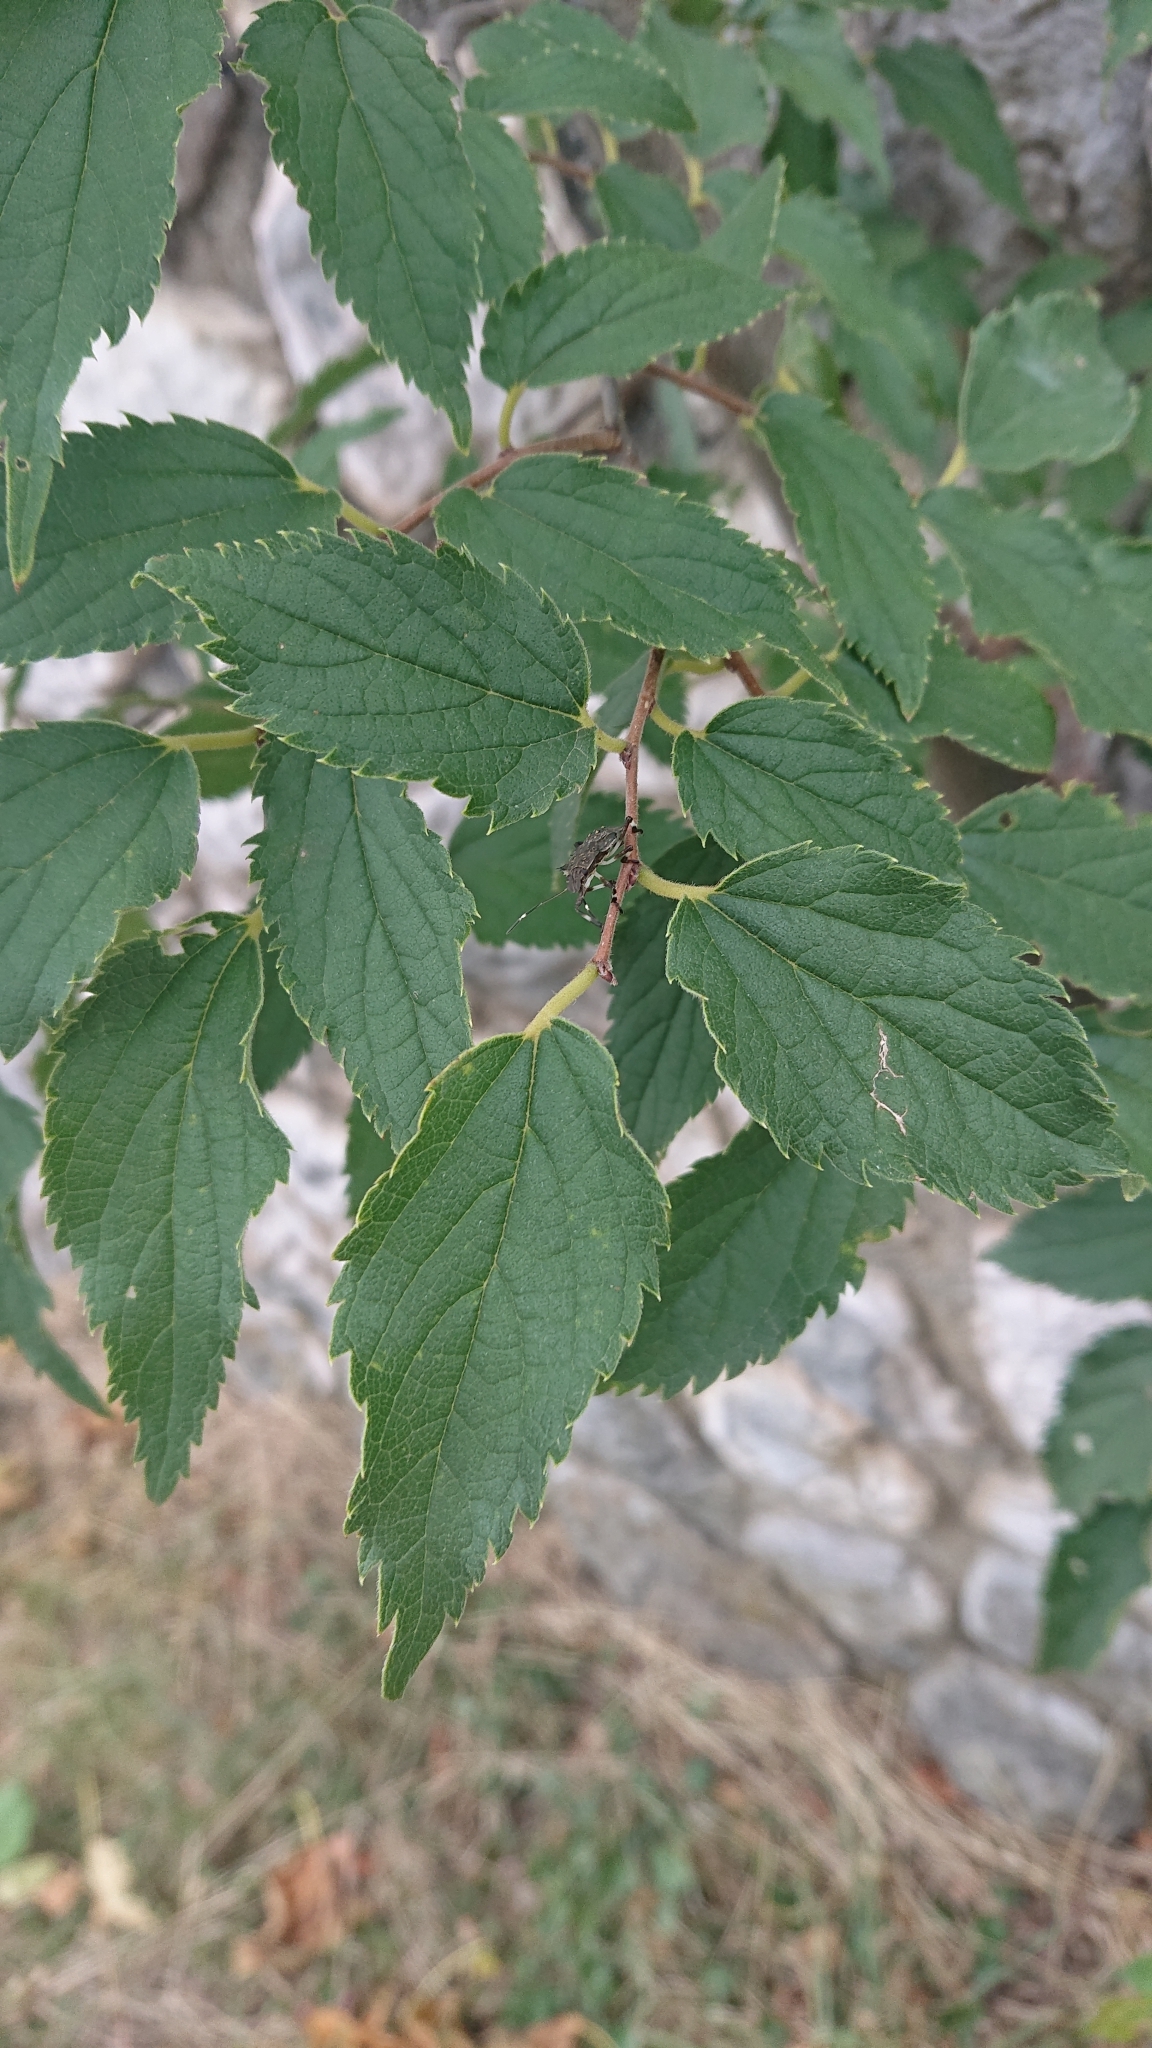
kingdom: Plantae
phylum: Tracheophyta
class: Magnoliopsida
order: Rosales
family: Cannabaceae
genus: Celtis
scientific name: Celtis australis
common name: European hackberry
